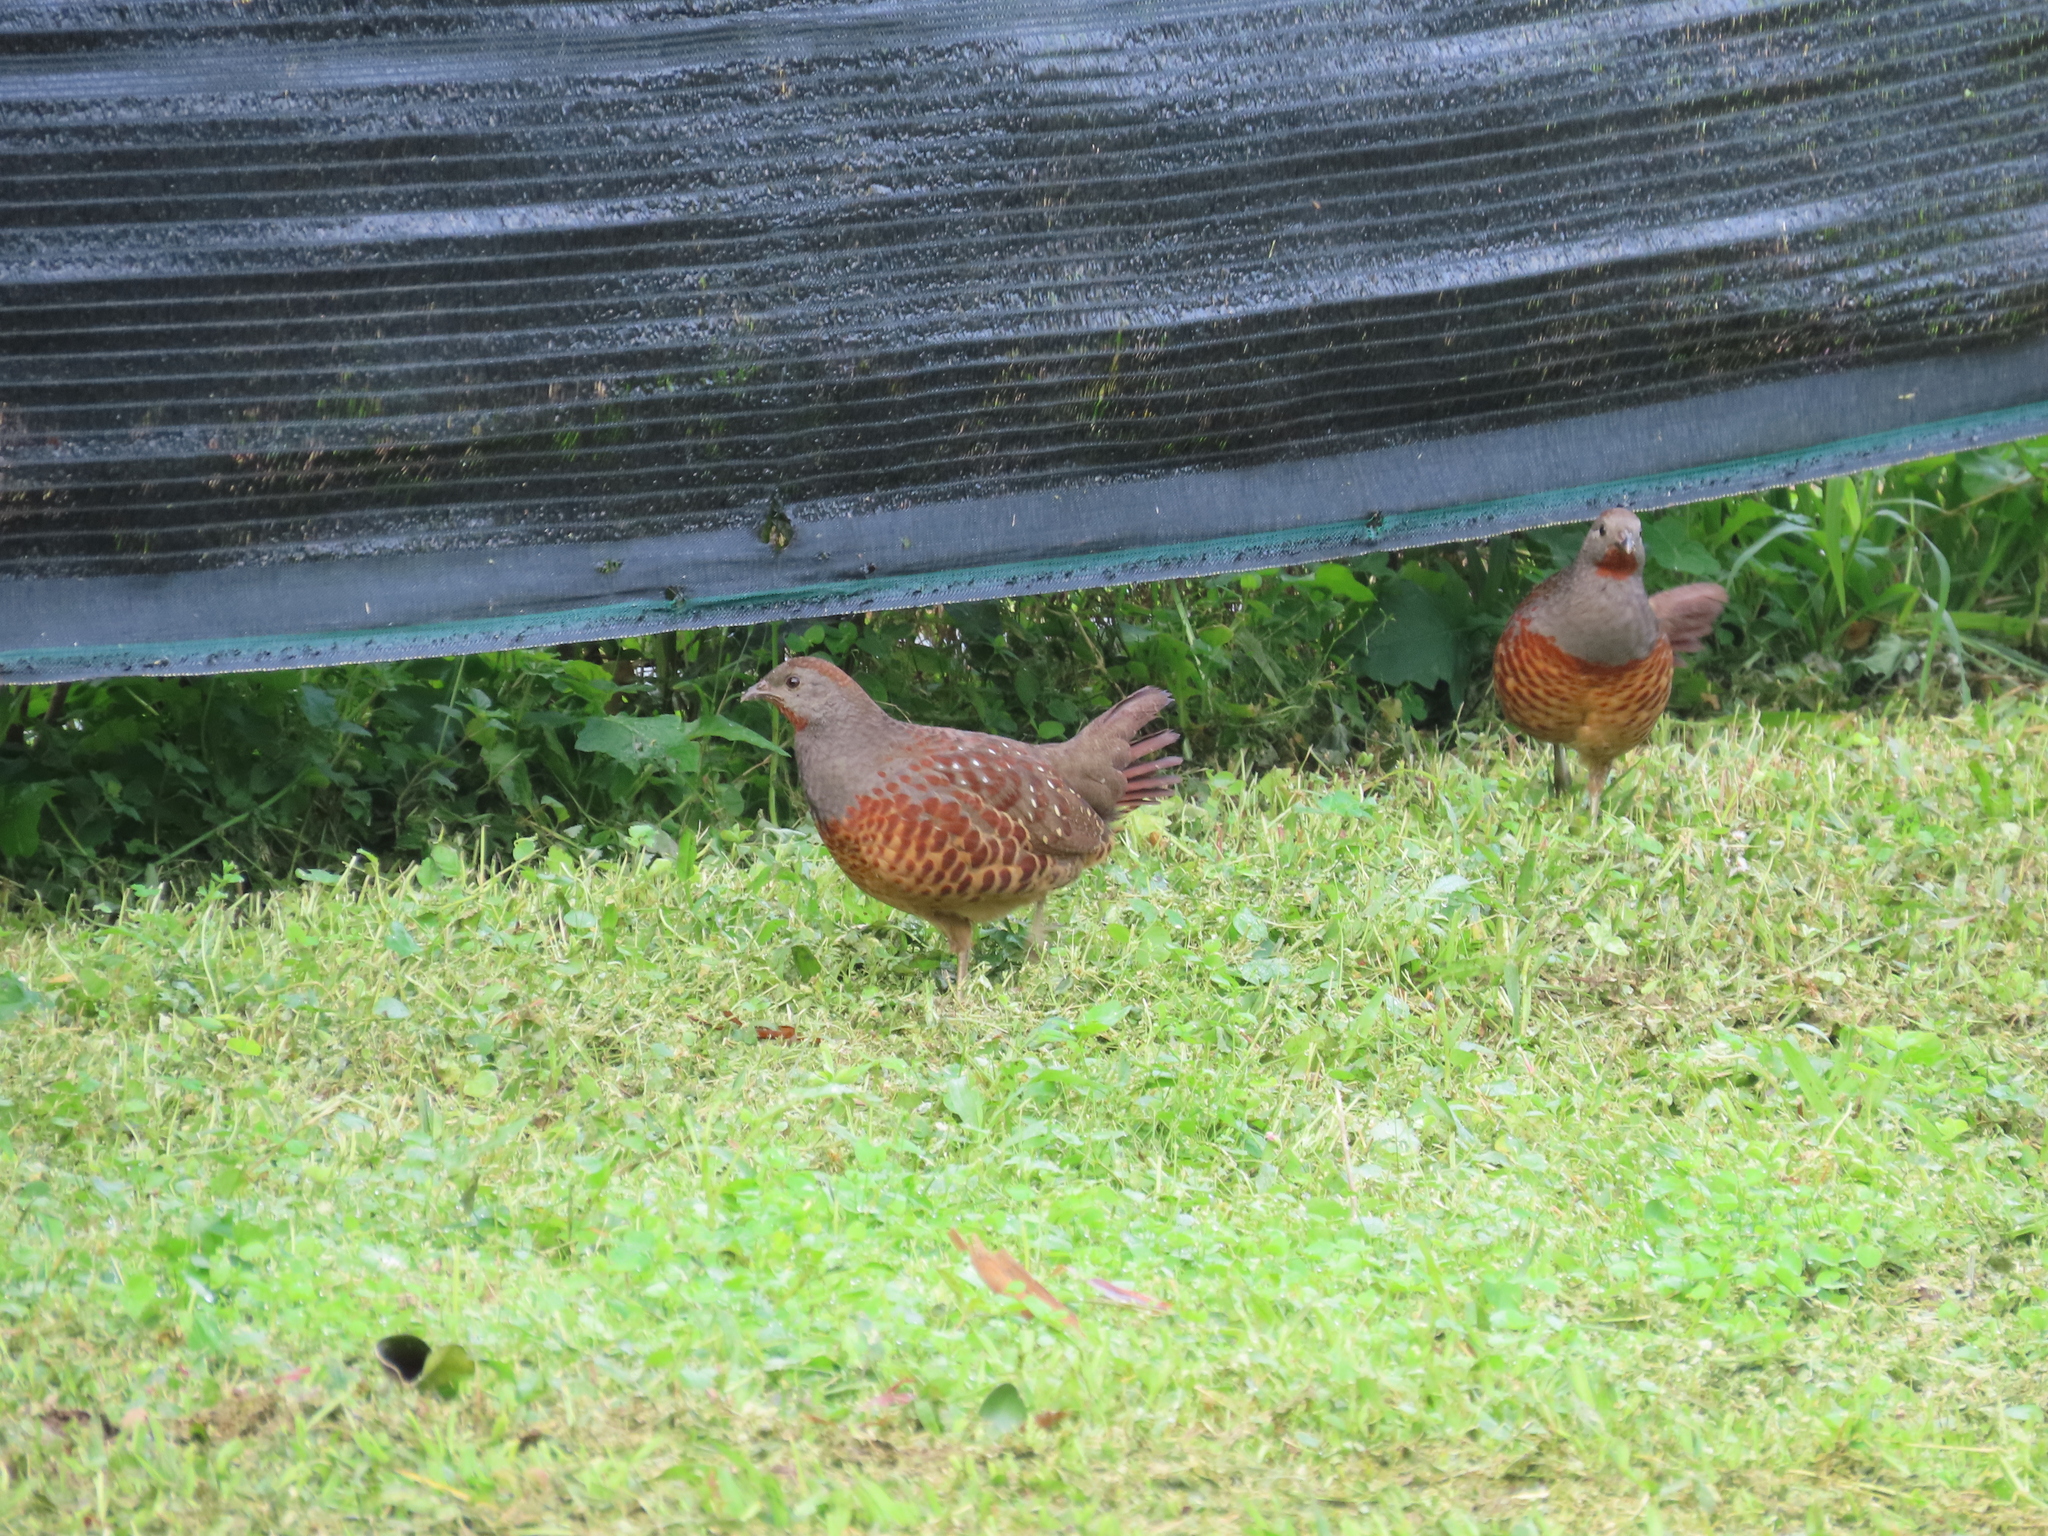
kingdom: Animalia
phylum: Chordata
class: Aves
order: Galliformes
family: Phasianidae
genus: Bambusicola
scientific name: Bambusicola sonorivox
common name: Taiwan bamboo-partridge
